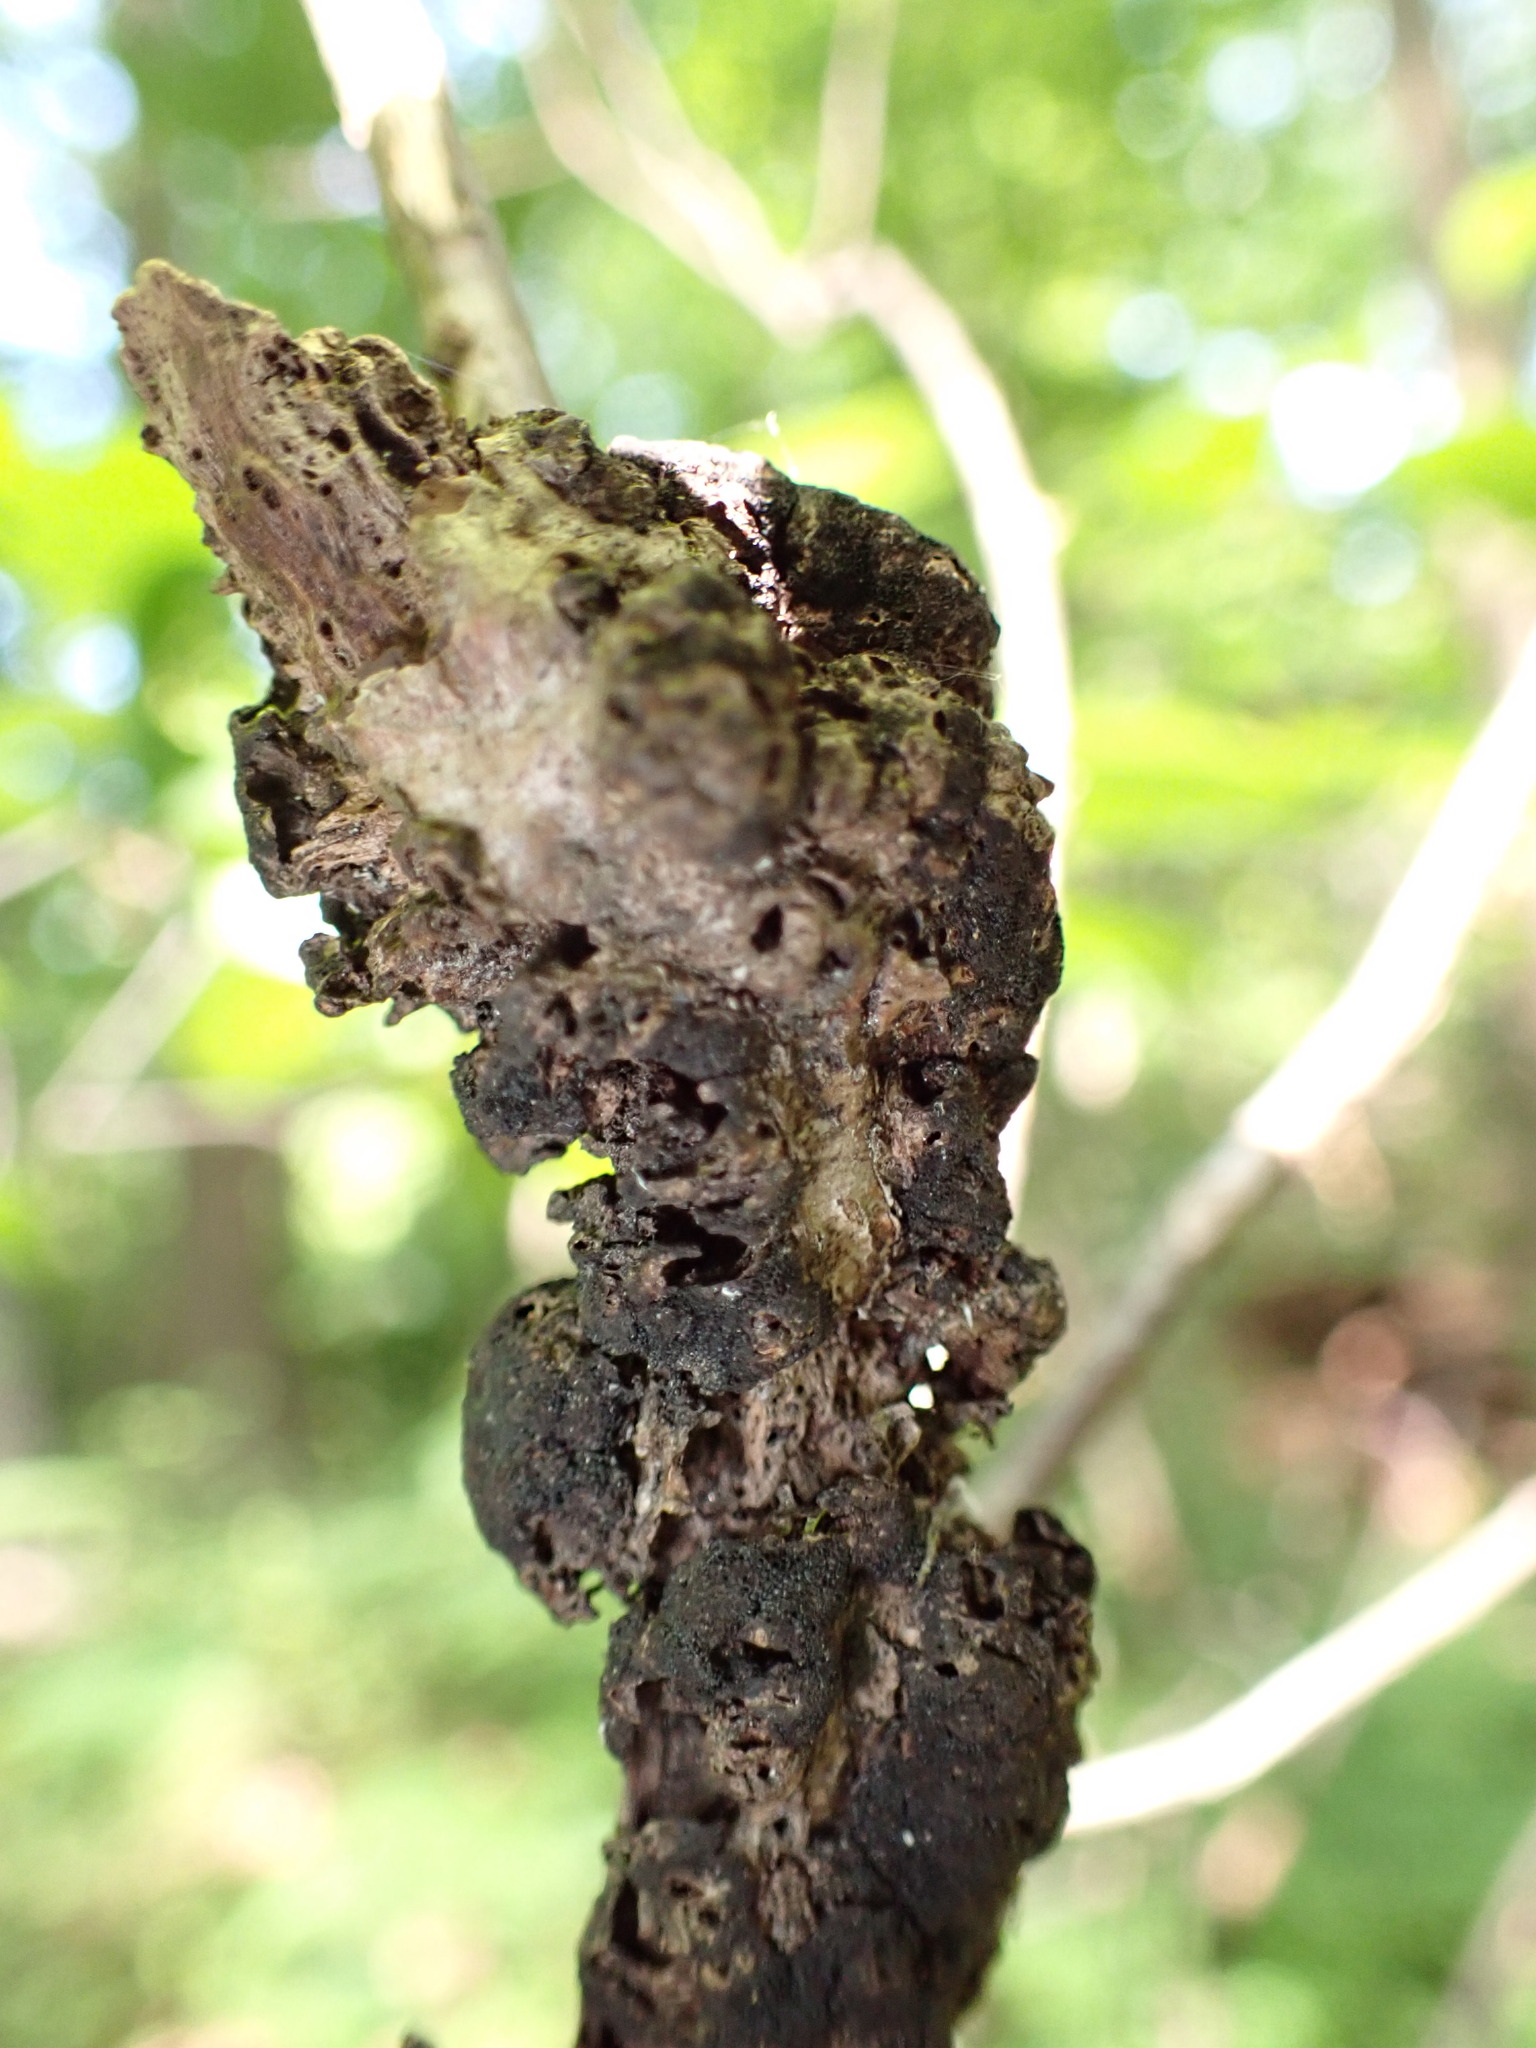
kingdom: Fungi
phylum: Ascomycota
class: Dothideomycetes
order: Venturiales
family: Venturiaceae
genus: Apiosporina
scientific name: Apiosporina morbosa
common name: Black knot
